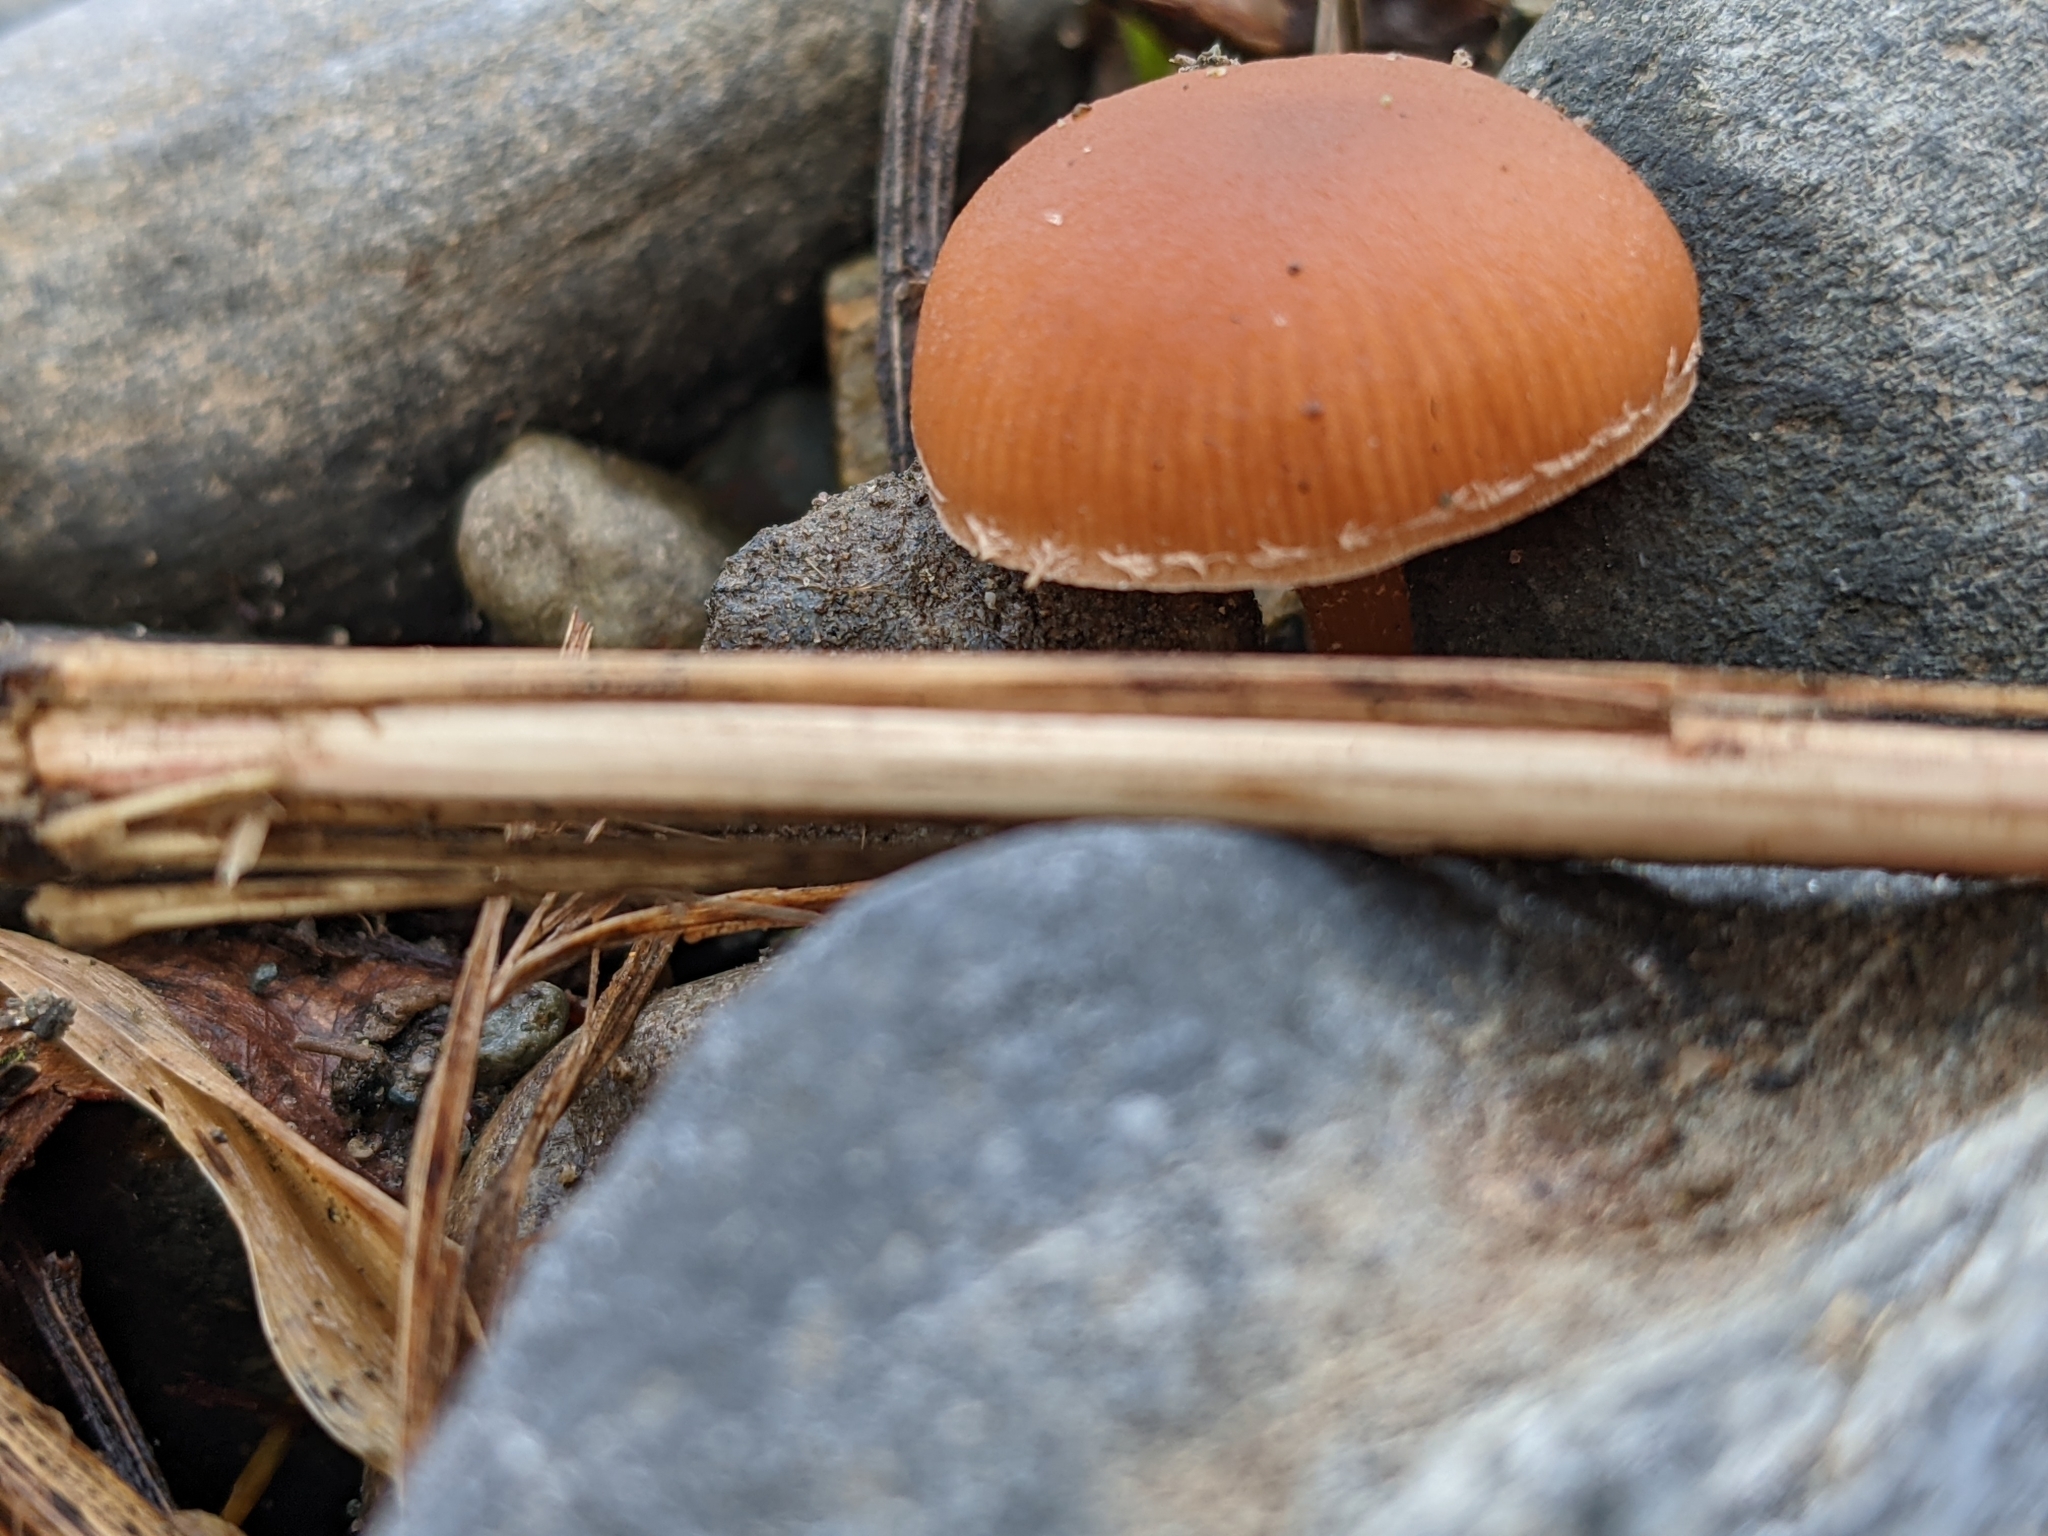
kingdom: Fungi
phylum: Basidiomycota
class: Agaricomycetes
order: Agaricales
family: Tubariaceae
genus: Tubaria
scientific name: Tubaria furfuracea
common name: Scurfy twiglet
